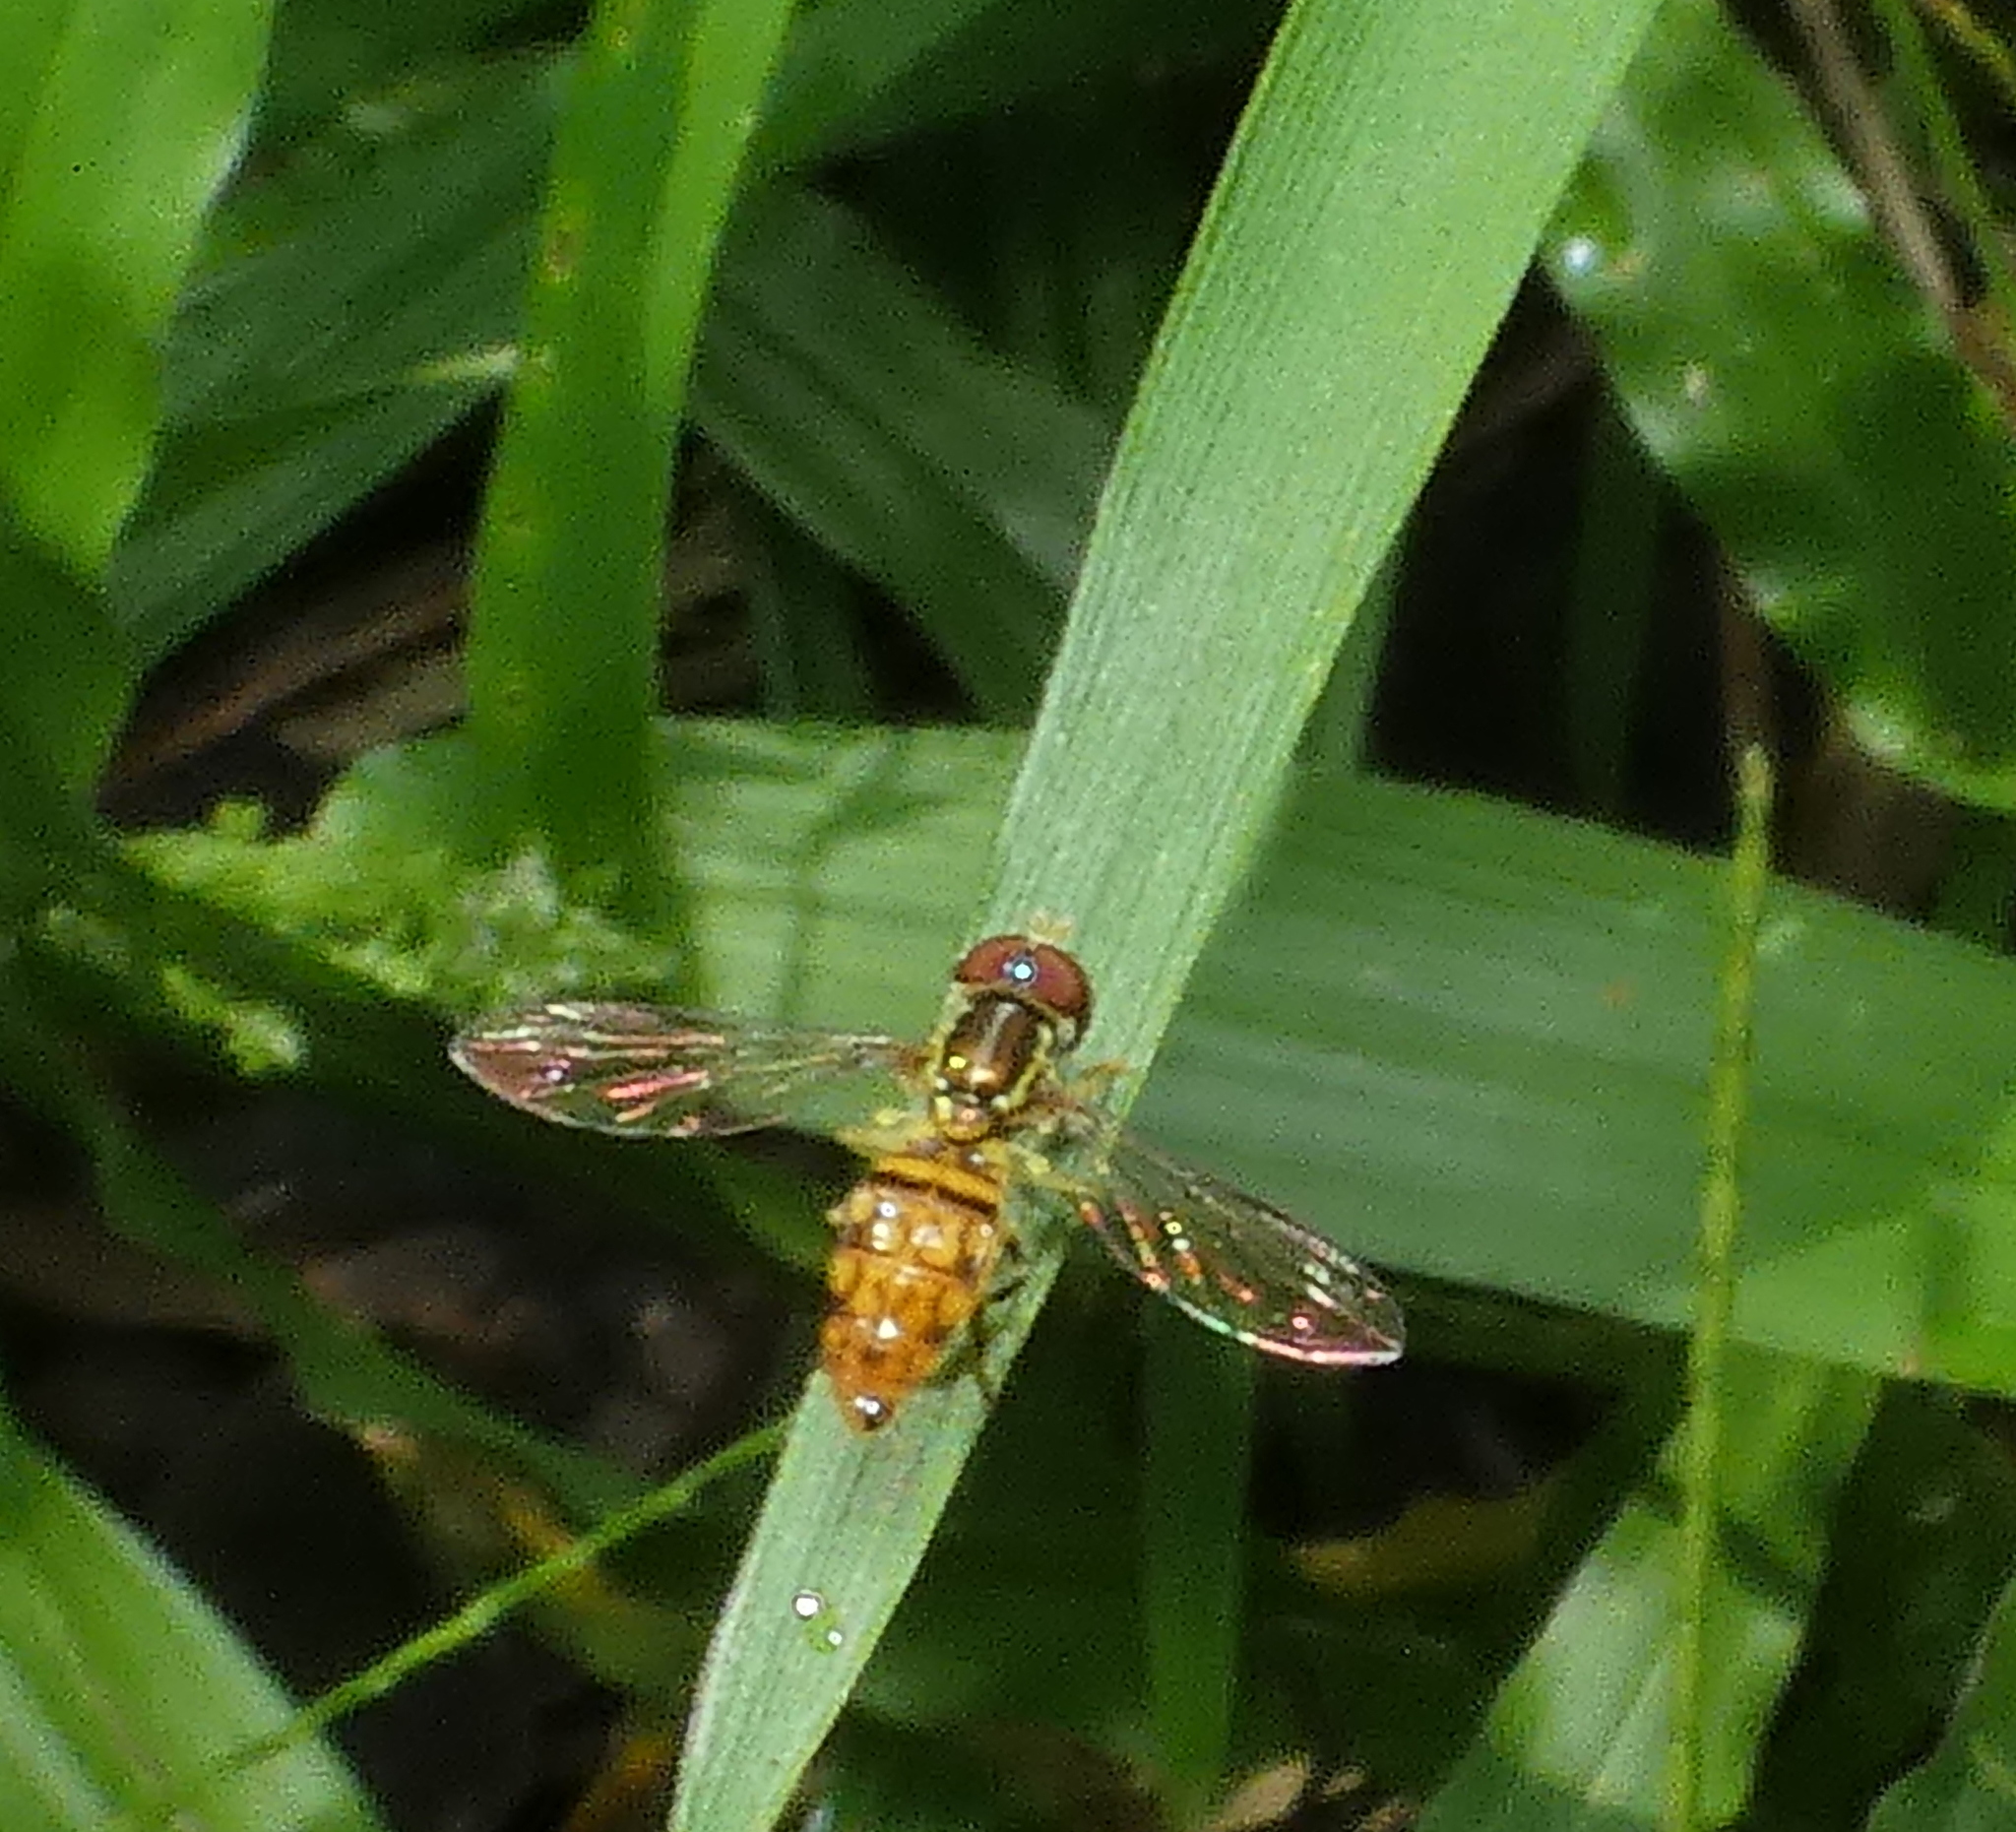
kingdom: Animalia
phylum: Arthropoda
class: Insecta
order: Diptera
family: Syrphidae
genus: Toxomerus
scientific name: Toxomerus pictus
